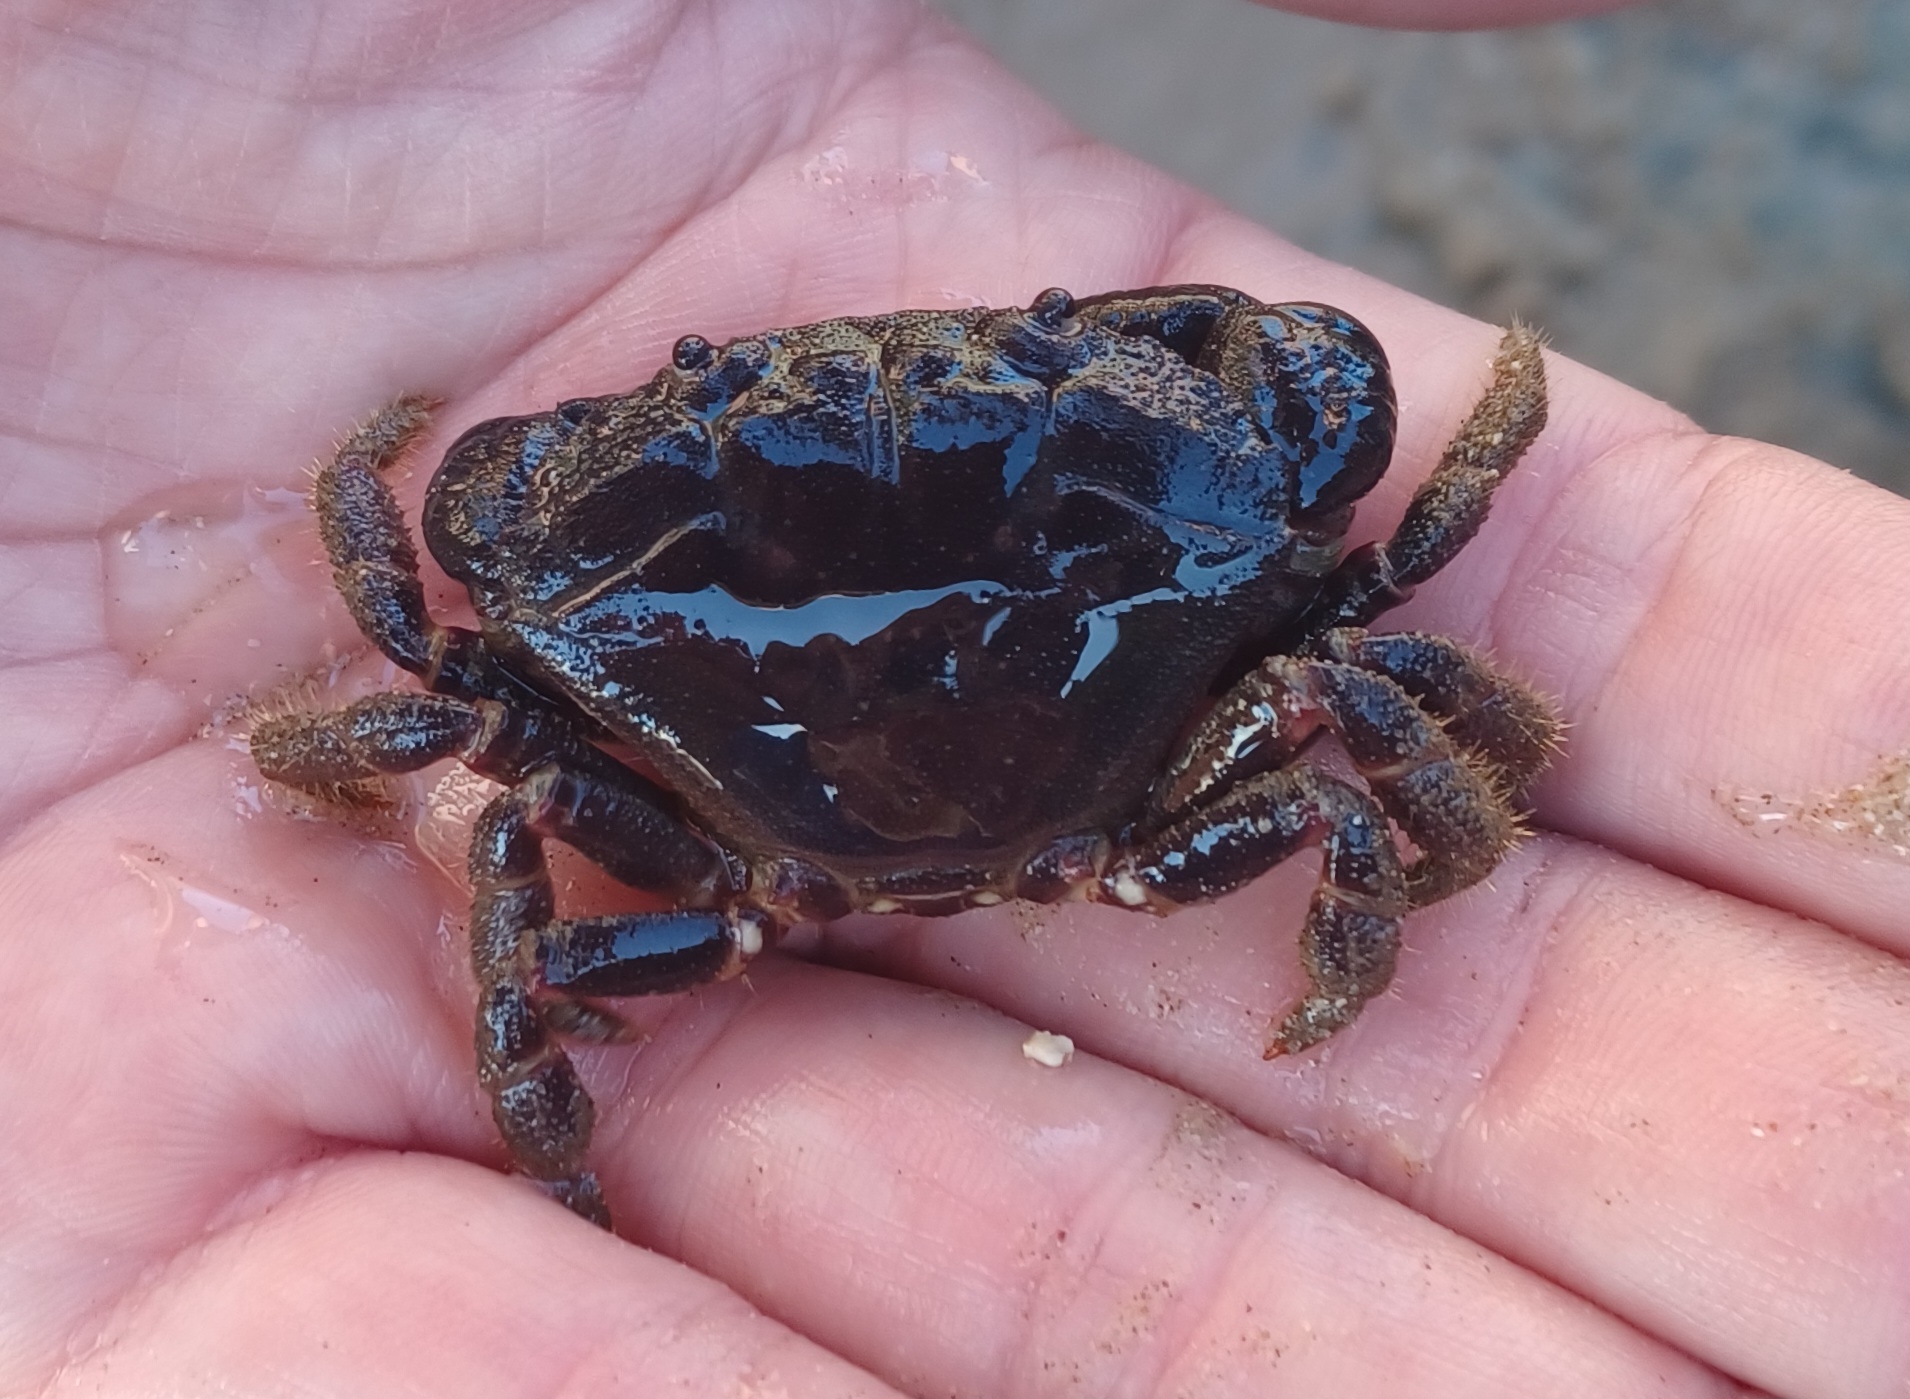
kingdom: Animalia
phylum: Arthropoda
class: Malacostraca
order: Decapoda
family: Oziidae
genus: Ozius
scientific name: Ozius truncatus
